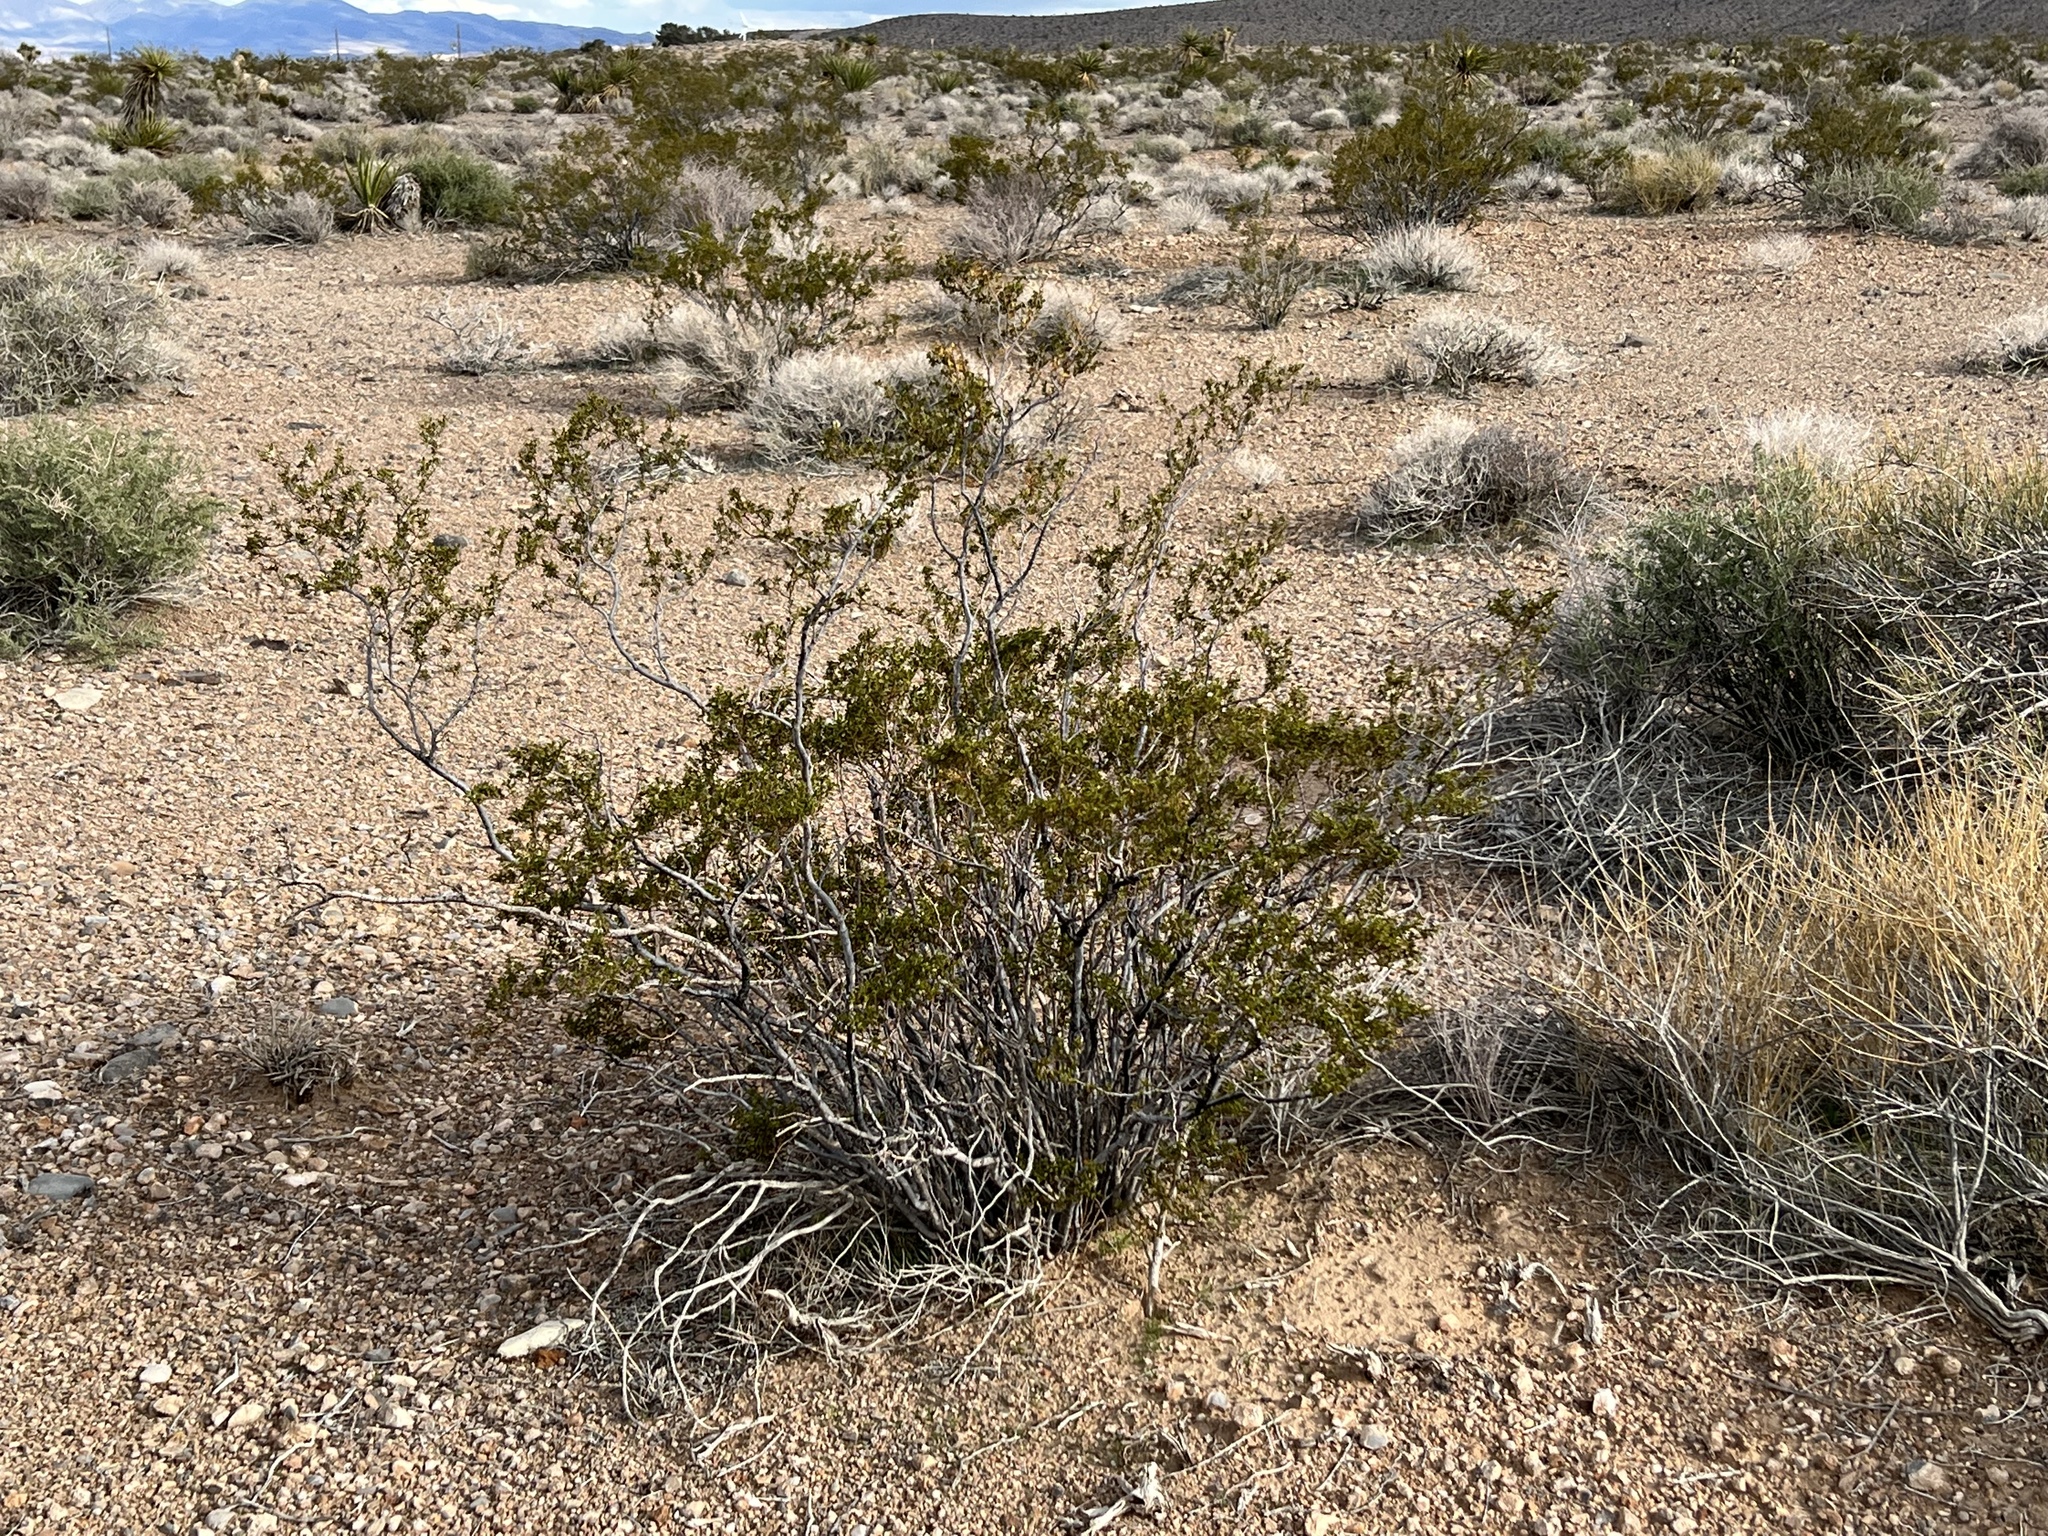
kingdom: Plantae
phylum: Tracheophyta
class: Magnoliopsida
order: Zygophyllales
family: Zygophyllaceae
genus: Larrea
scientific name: Larrea tridentata
